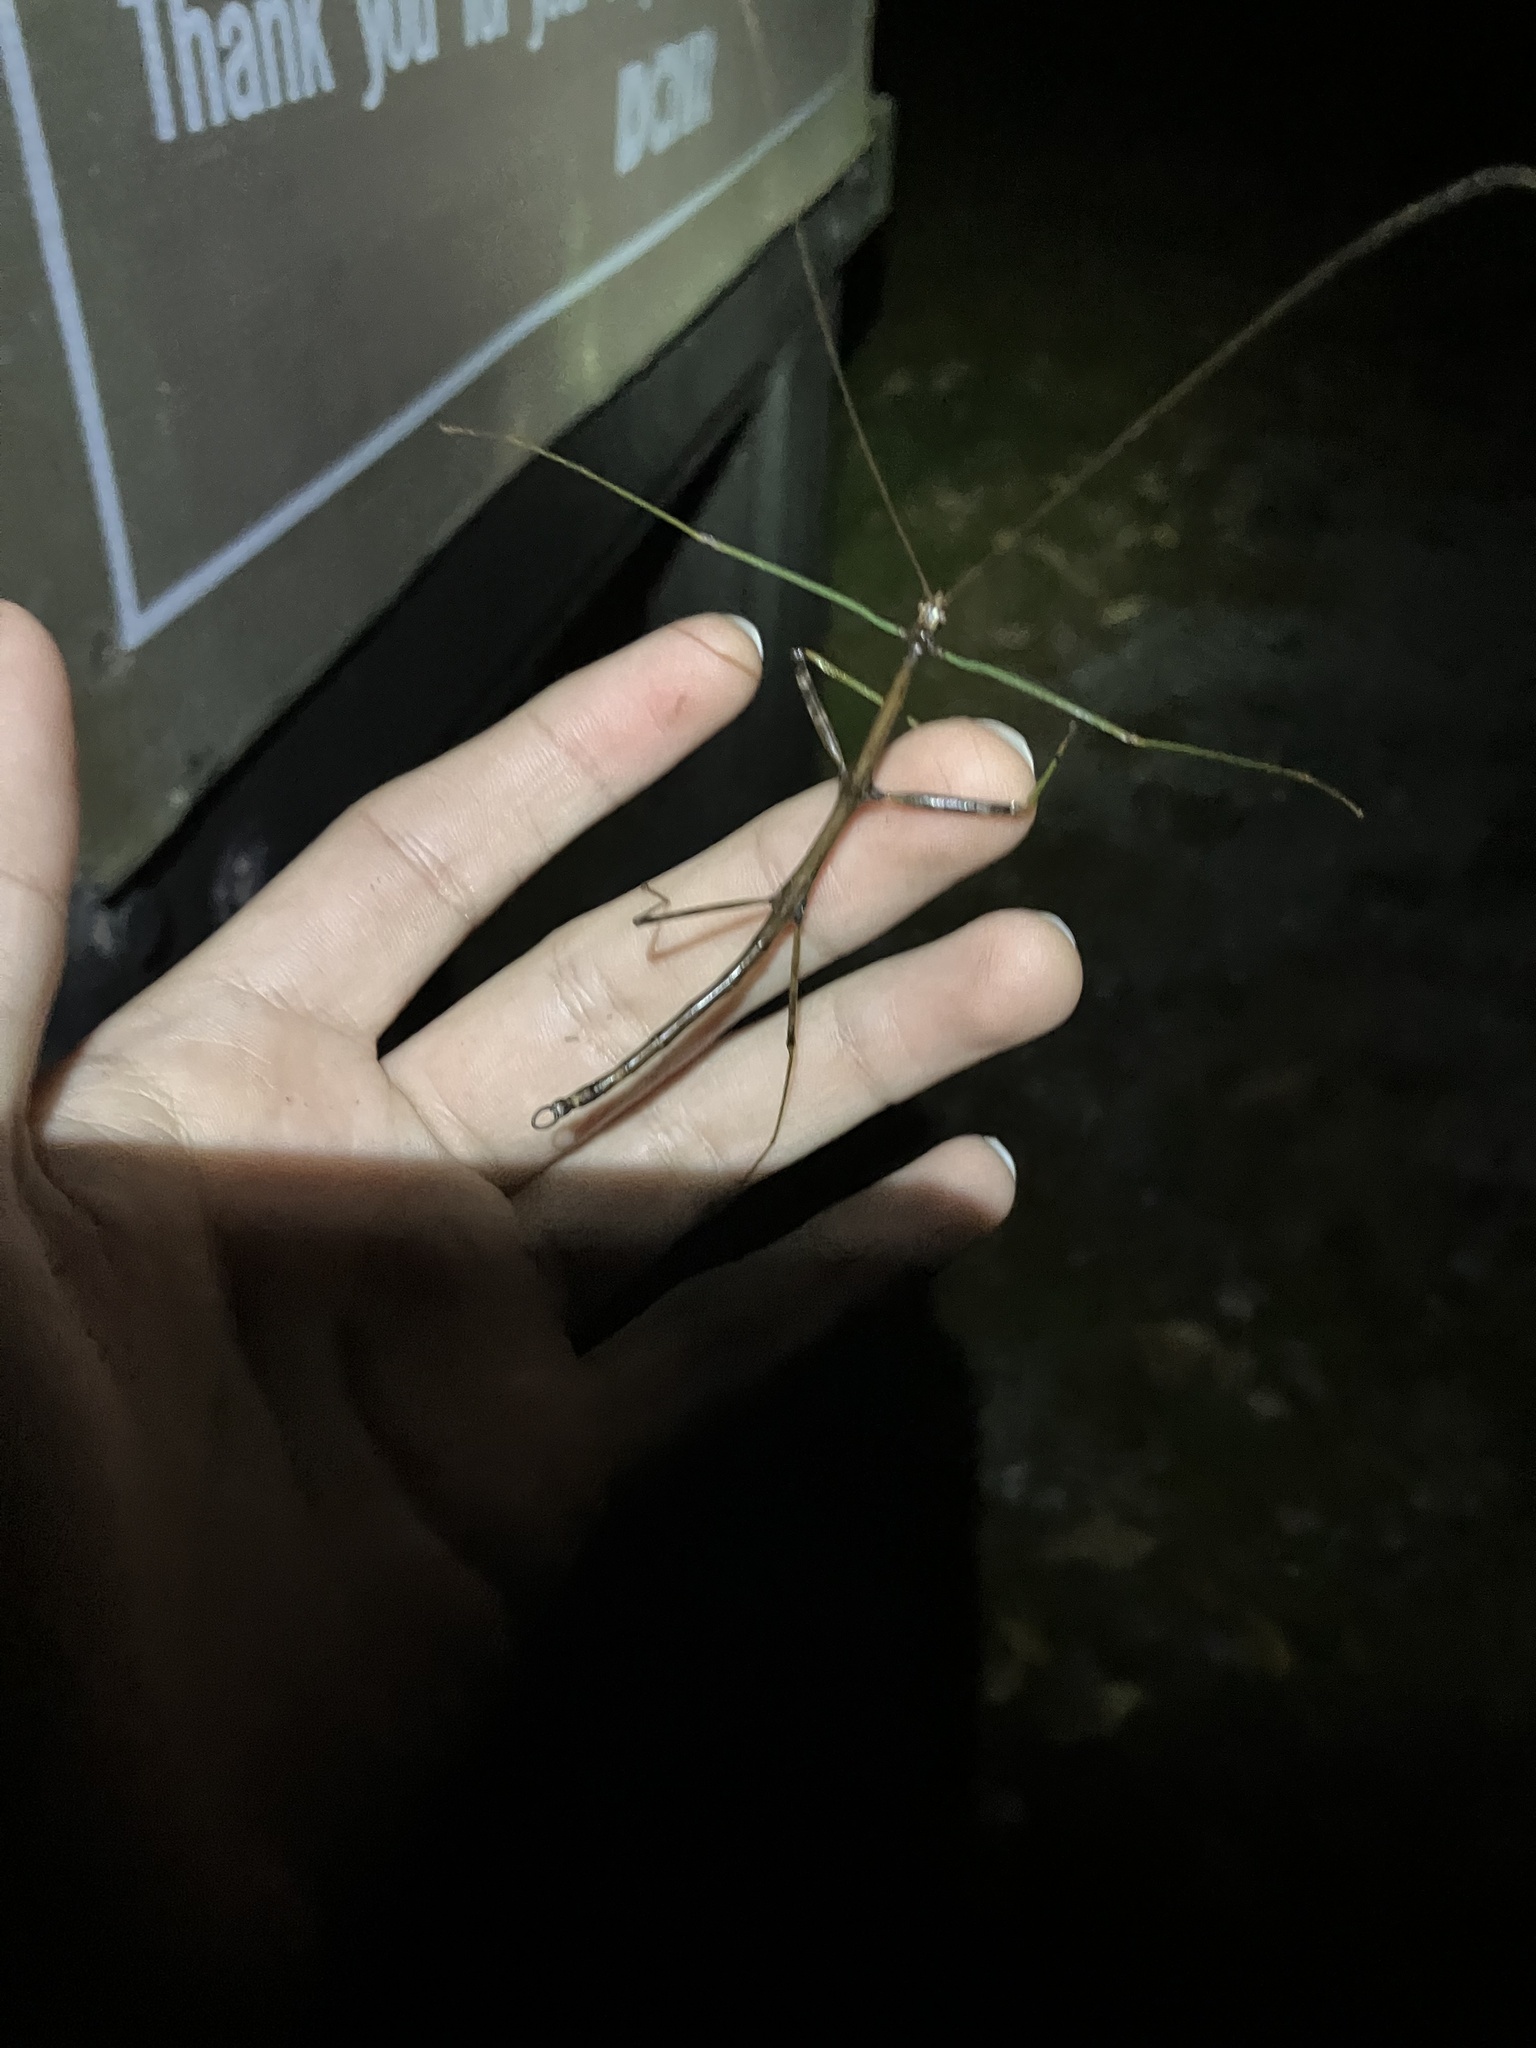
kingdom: Animalia
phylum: Arthropoda
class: Insecta
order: Phasmida
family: Diapheromeridae
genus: Diapheromera
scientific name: Diapheromera femorata
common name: Common american walkingstick
